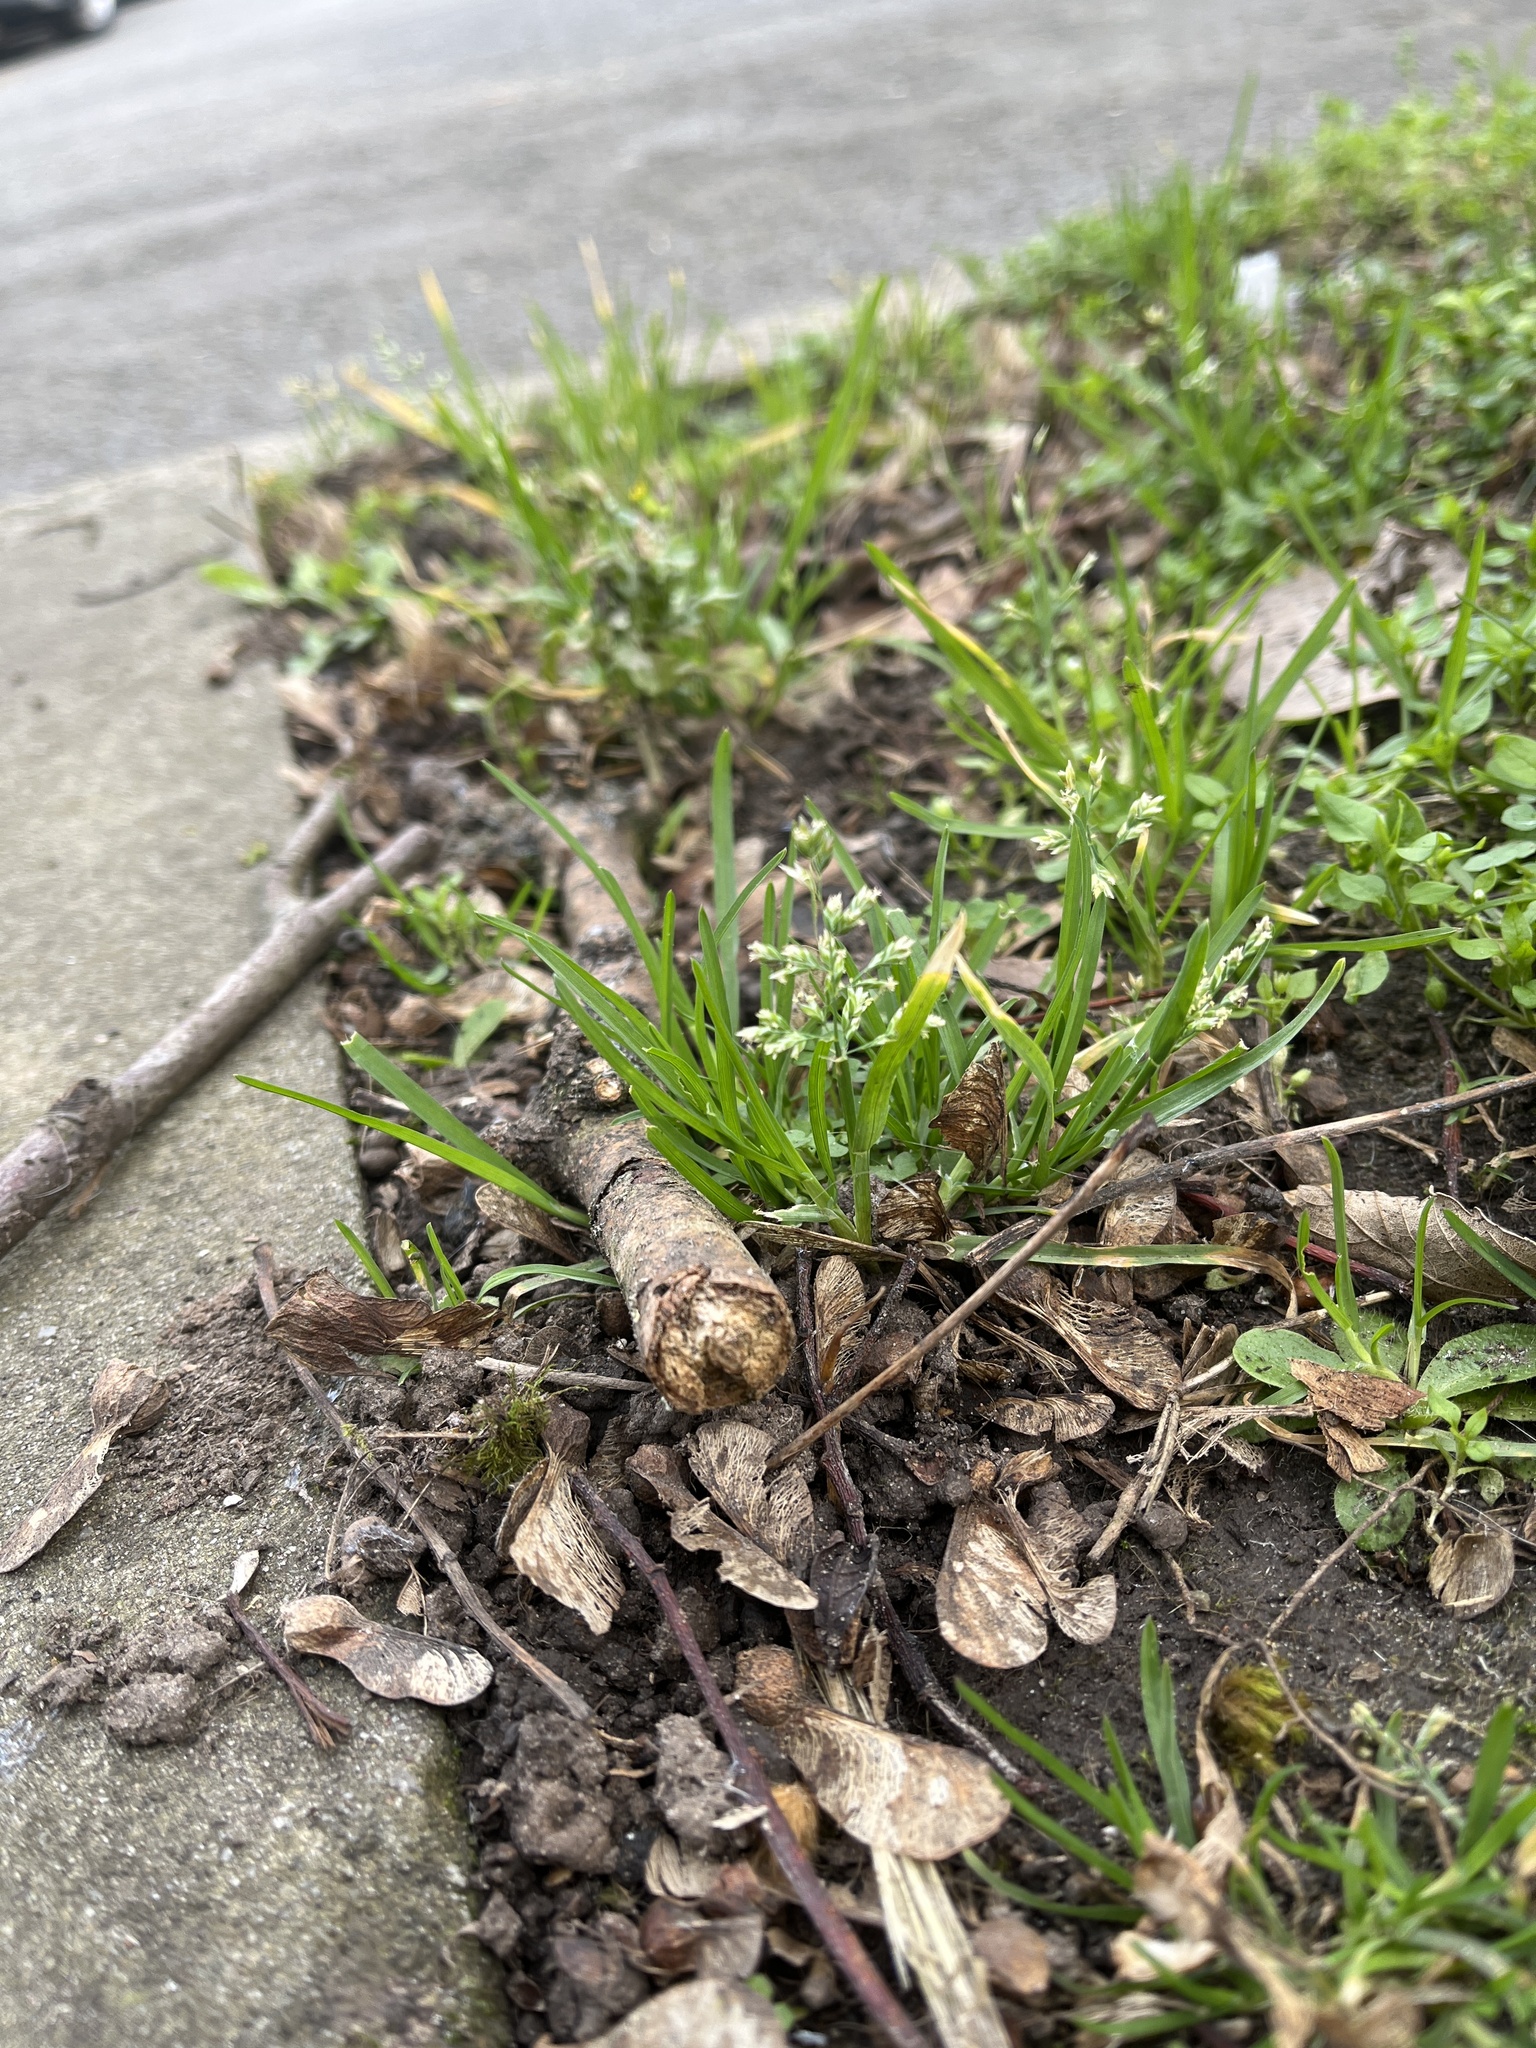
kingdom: Plantae
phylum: Tracheophyta
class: Liliopsida
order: Poales
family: Poaceae
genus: Poa
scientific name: Poa annua
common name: Annual bluegrass
